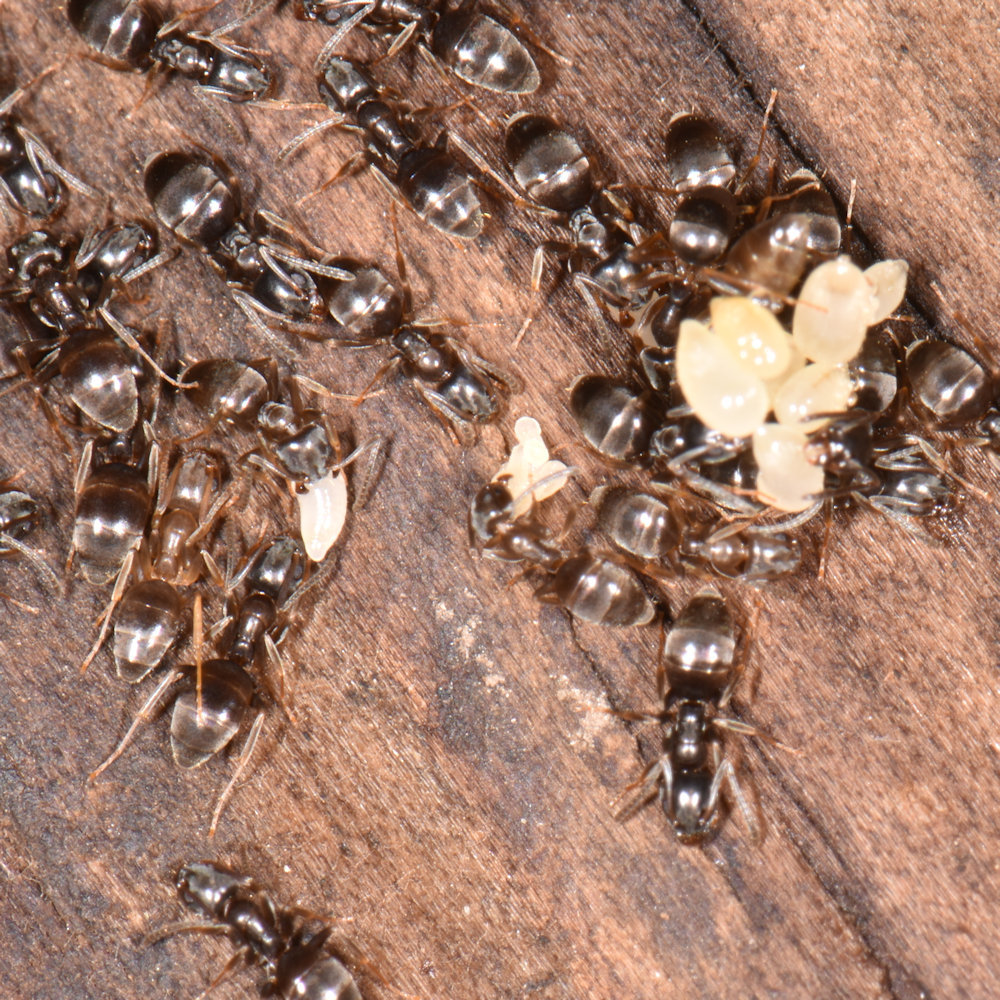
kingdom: Animalia
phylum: Arthropoda
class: Insecta
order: Hymenoptera
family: Formicidae
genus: Tapinoma
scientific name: Tapinoma sessile
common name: Odorous house ant
